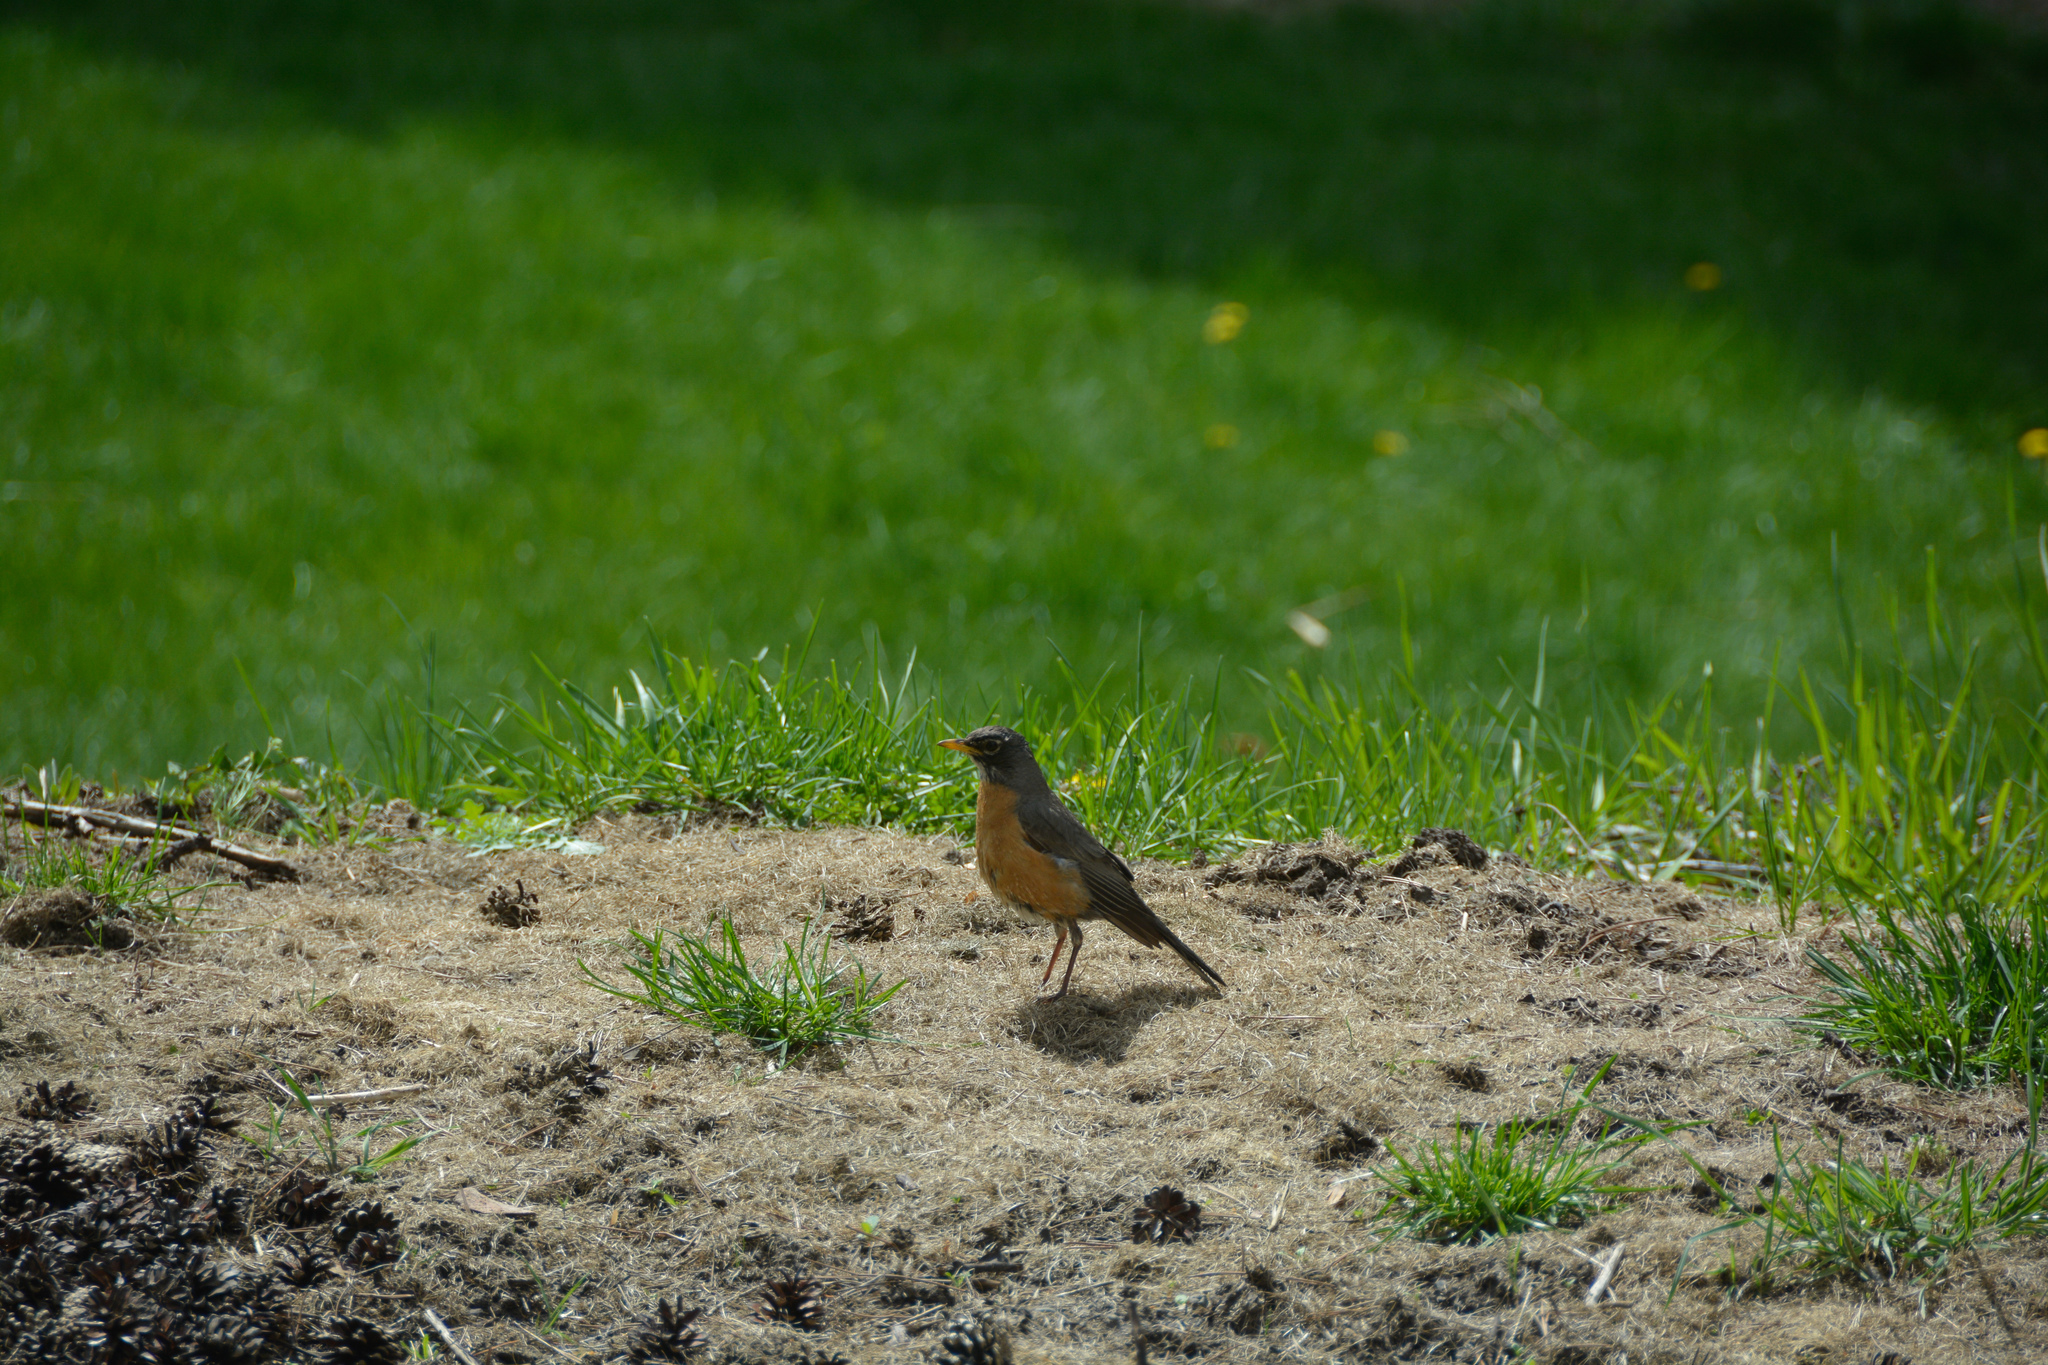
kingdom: Animalia
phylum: Chordata
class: Aves
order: Passeriformes
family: Turdidae
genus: Turdus
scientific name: Turdus migratorius
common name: American robin
